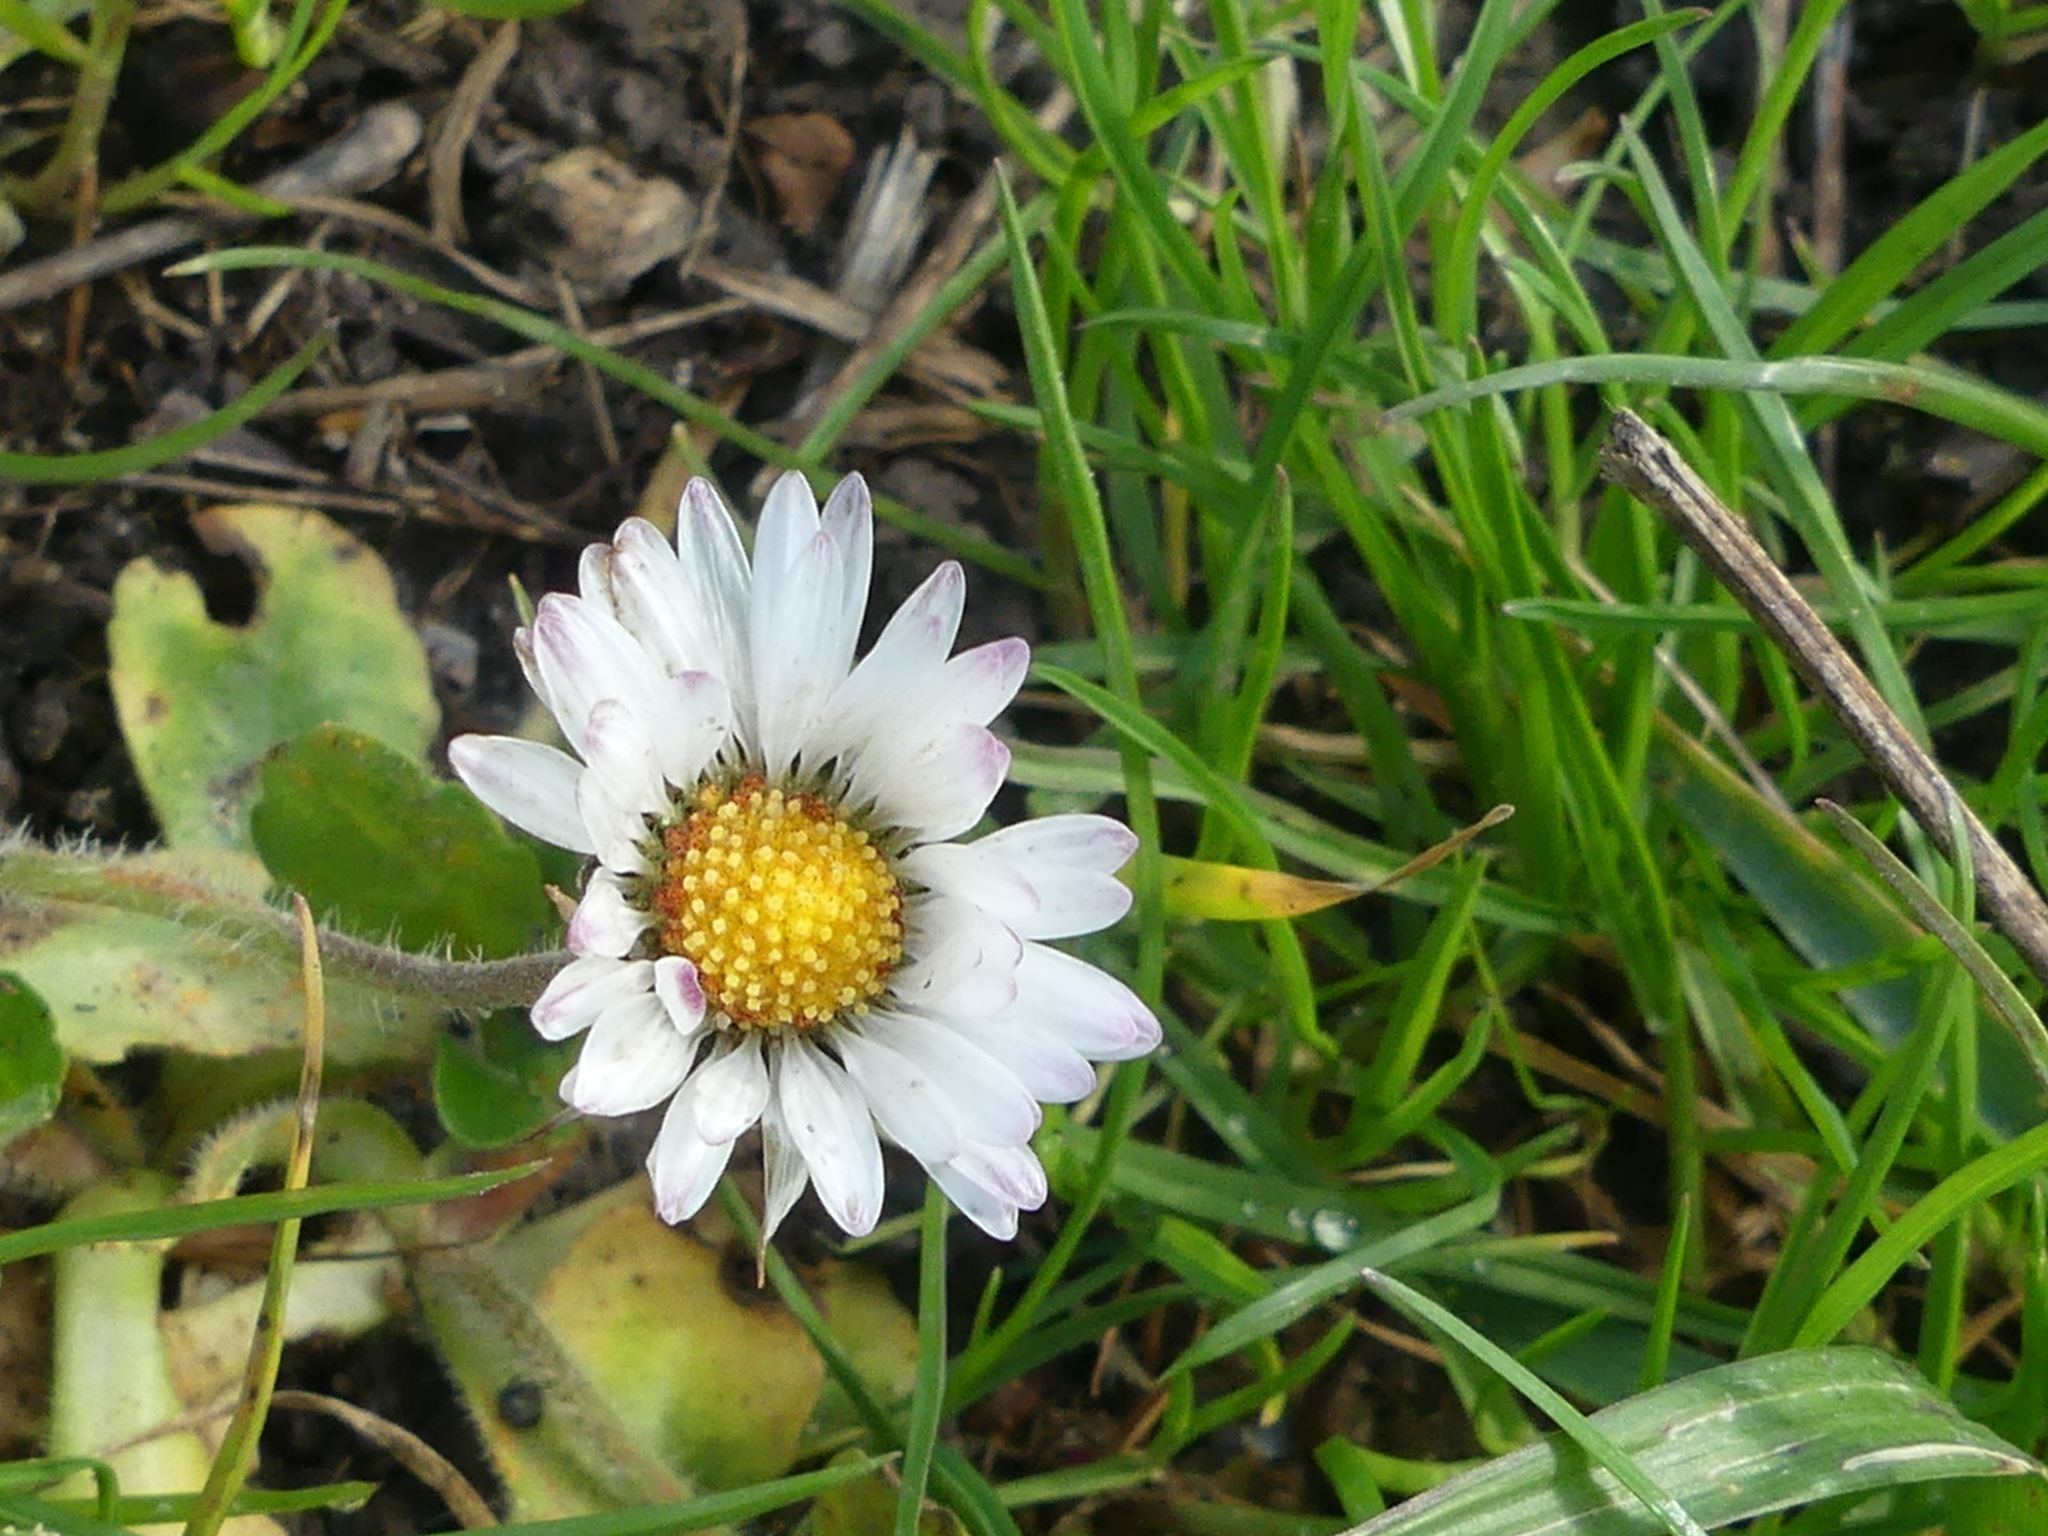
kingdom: Plantae
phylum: Tracheophyta
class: Magnoliopsida
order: Asterales
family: Asteraceae
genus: Bellis
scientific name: Bellis perennis
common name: Lawndaisy
